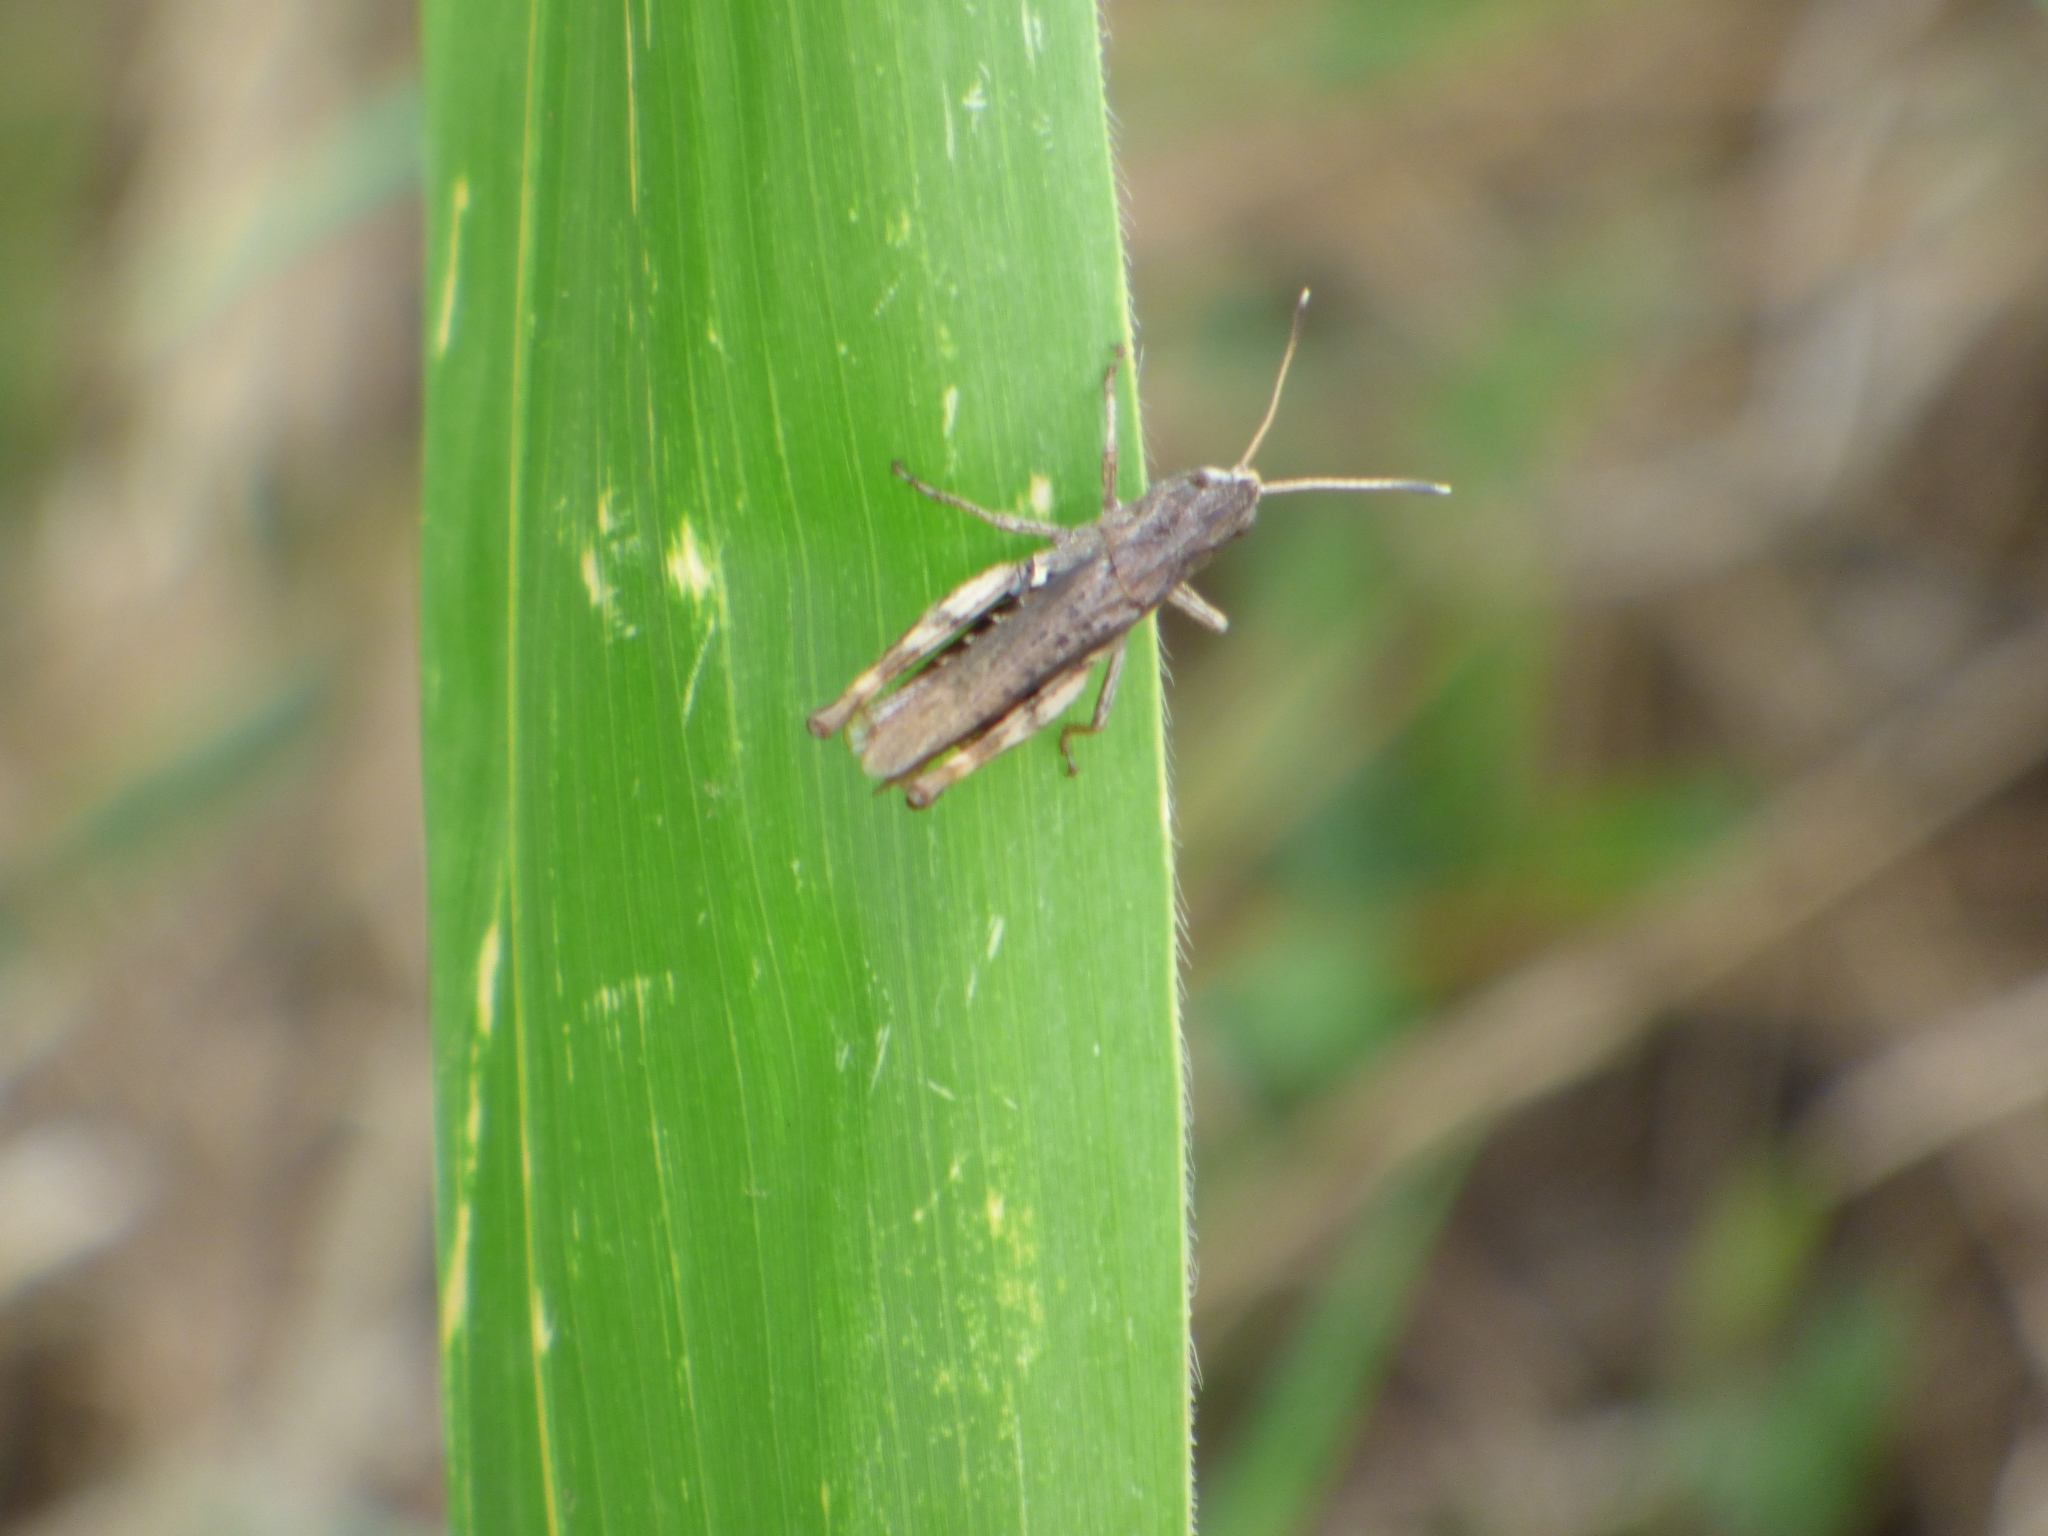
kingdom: Animalia
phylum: Arthropoda
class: Insecta
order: Orthoptera
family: Acrididae
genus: Gomphocerippus
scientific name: Gomphocerippus rufus
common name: Rufous grasshopper
